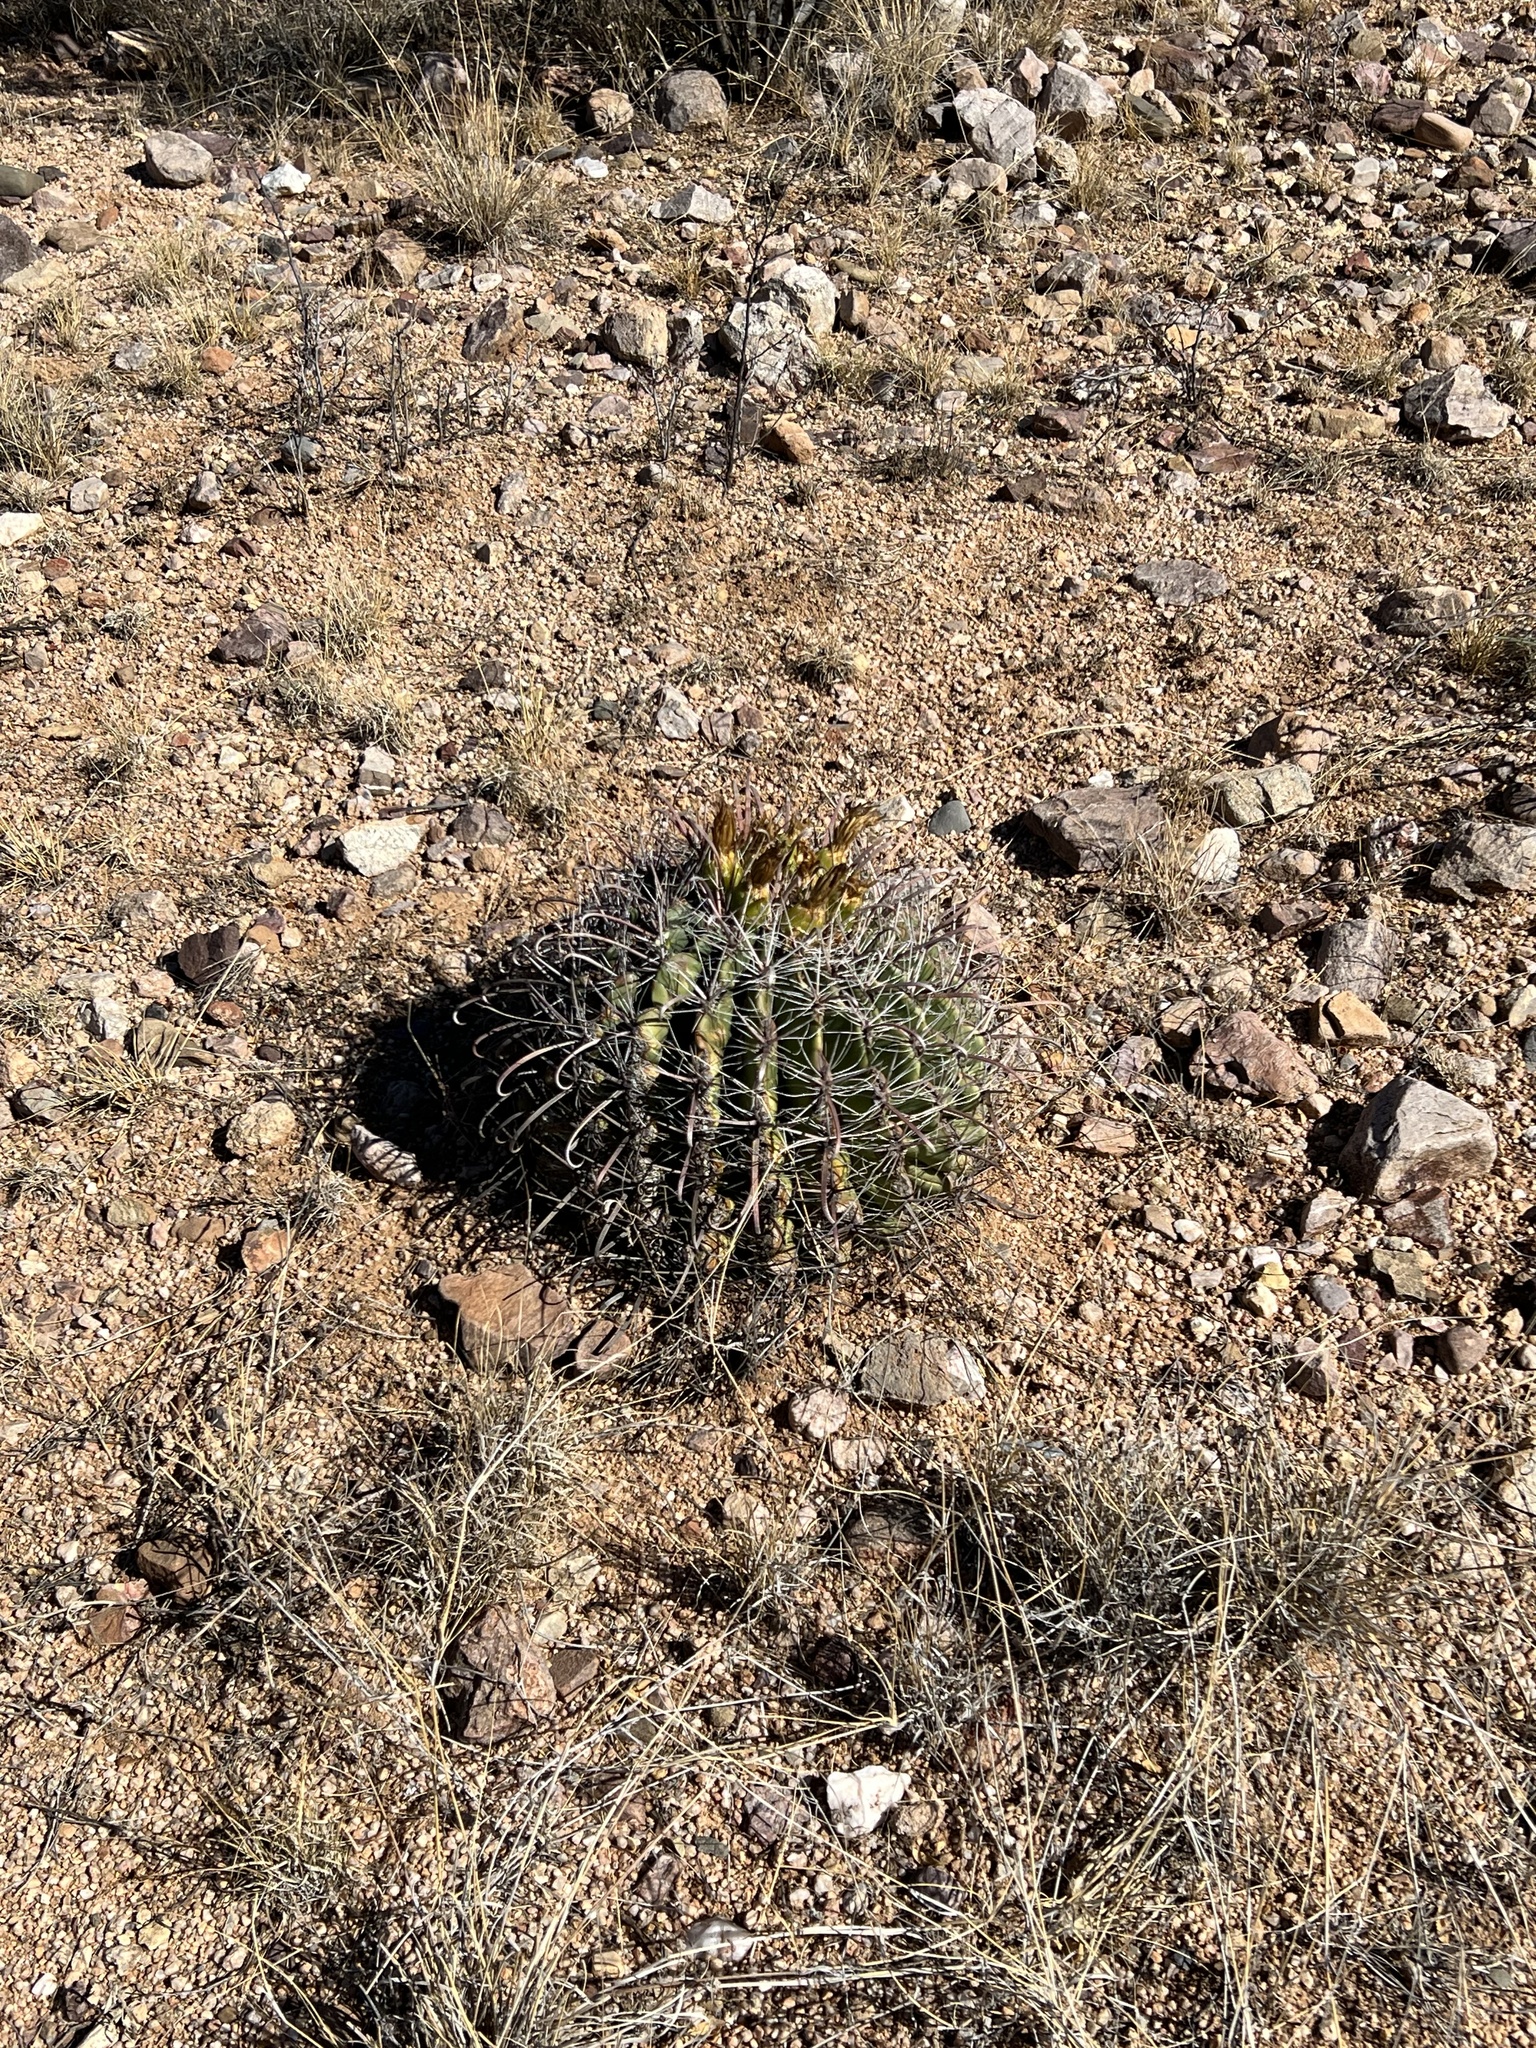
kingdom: Plantae
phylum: Tracheophyta
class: Magnoliopsida
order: Caryophyllales
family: Cactaceae
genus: Ferocactus
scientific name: Ferocactus wislizeni
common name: Candy barrel cactus
